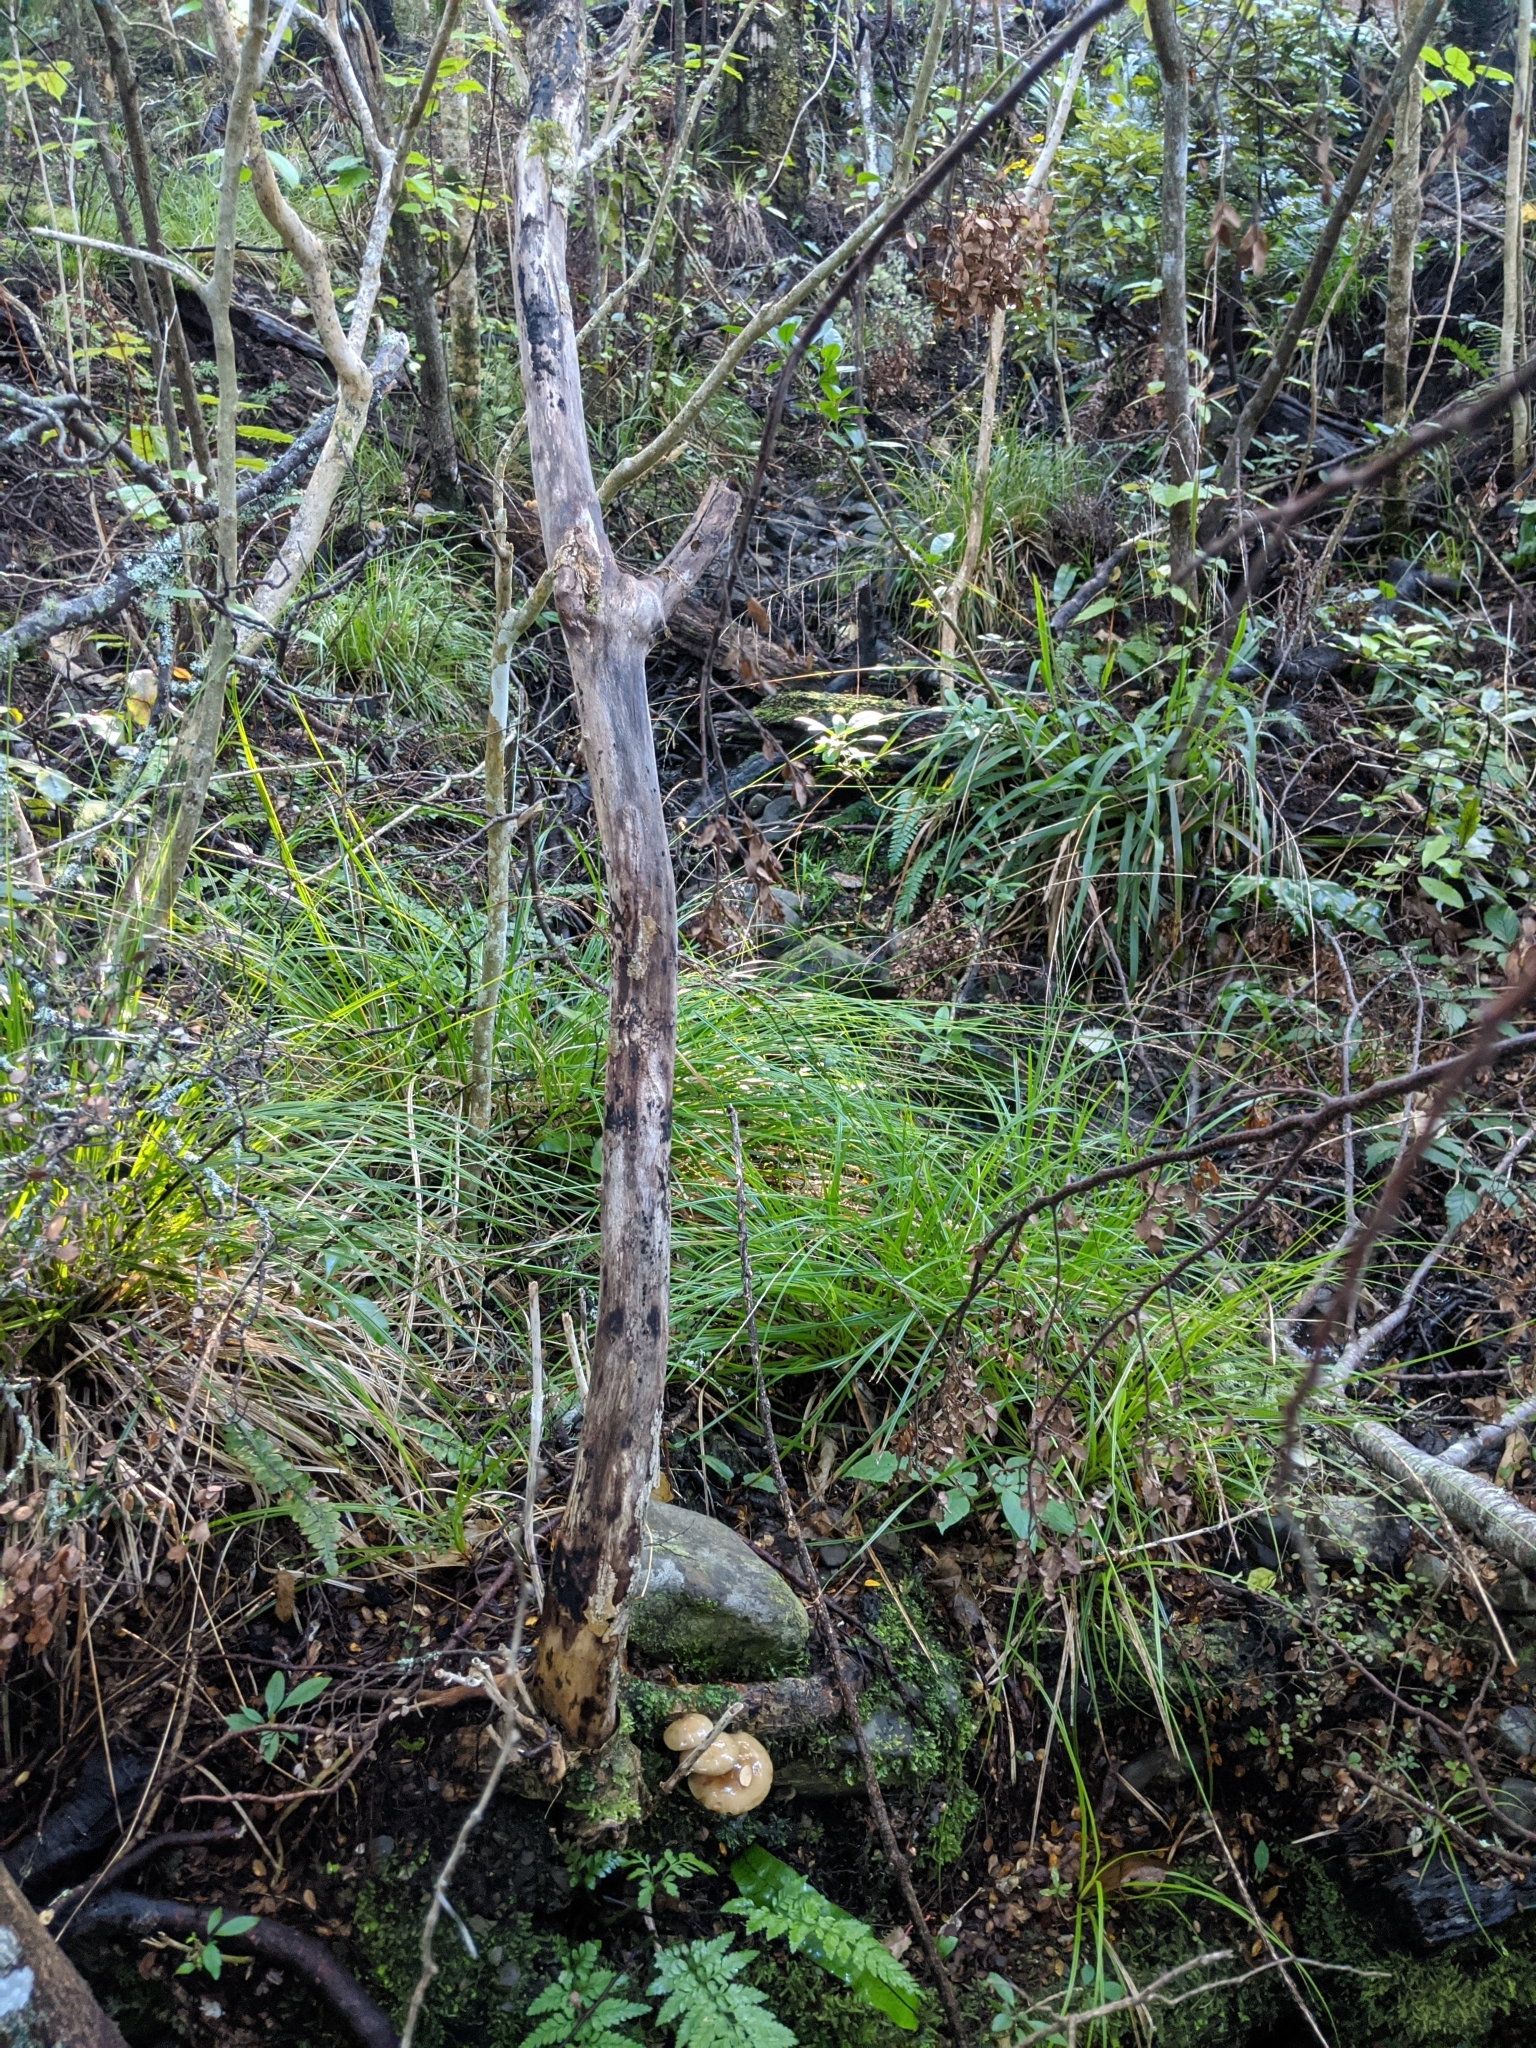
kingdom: Fungi
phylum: Basidiomycota
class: Agaricomycetes
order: Agaricales
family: Physalacriaceae
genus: Armillaria
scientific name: Armillaria novae-zelandiae
